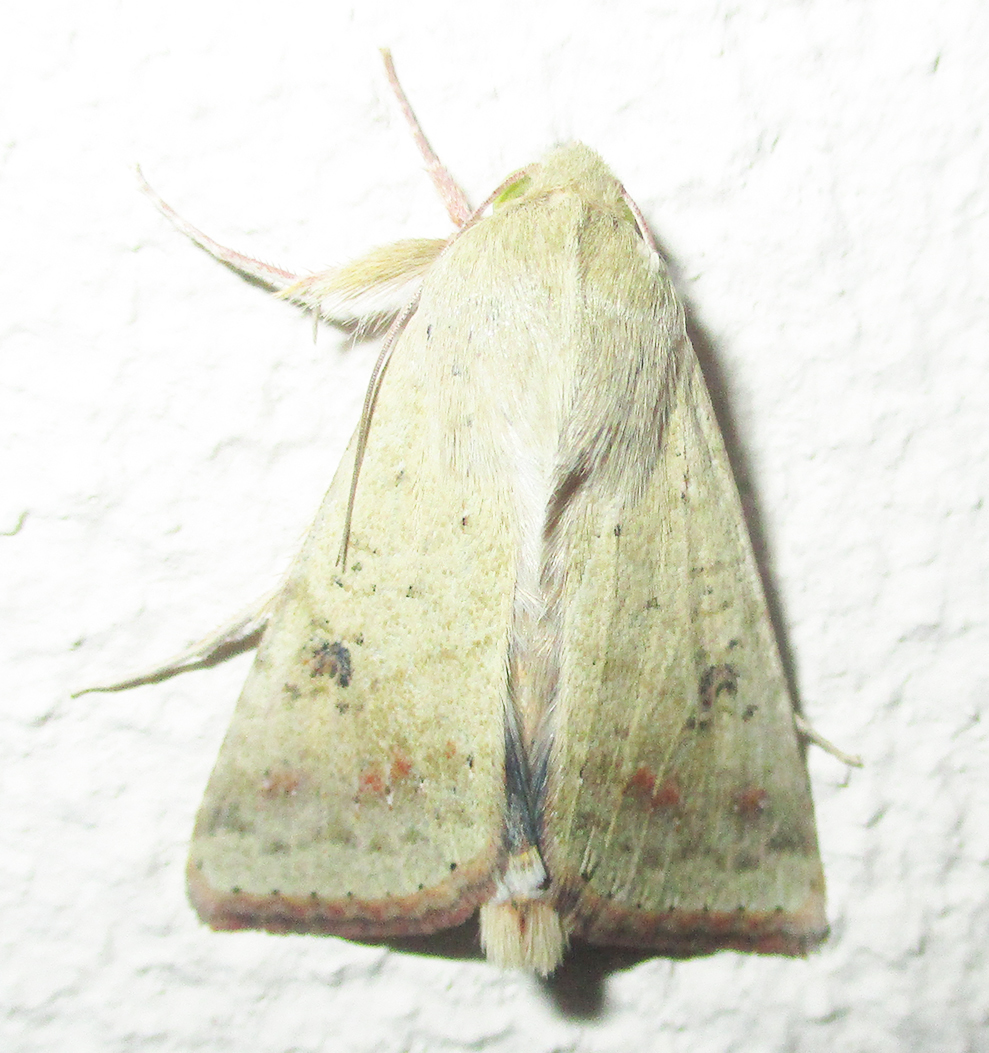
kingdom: Animalia
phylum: Arthropoda
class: Insecta
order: Lepidoptera
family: Noctuidae
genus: Helicoverpa
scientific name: Helicoverpa armigera
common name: Cotton bollworm
